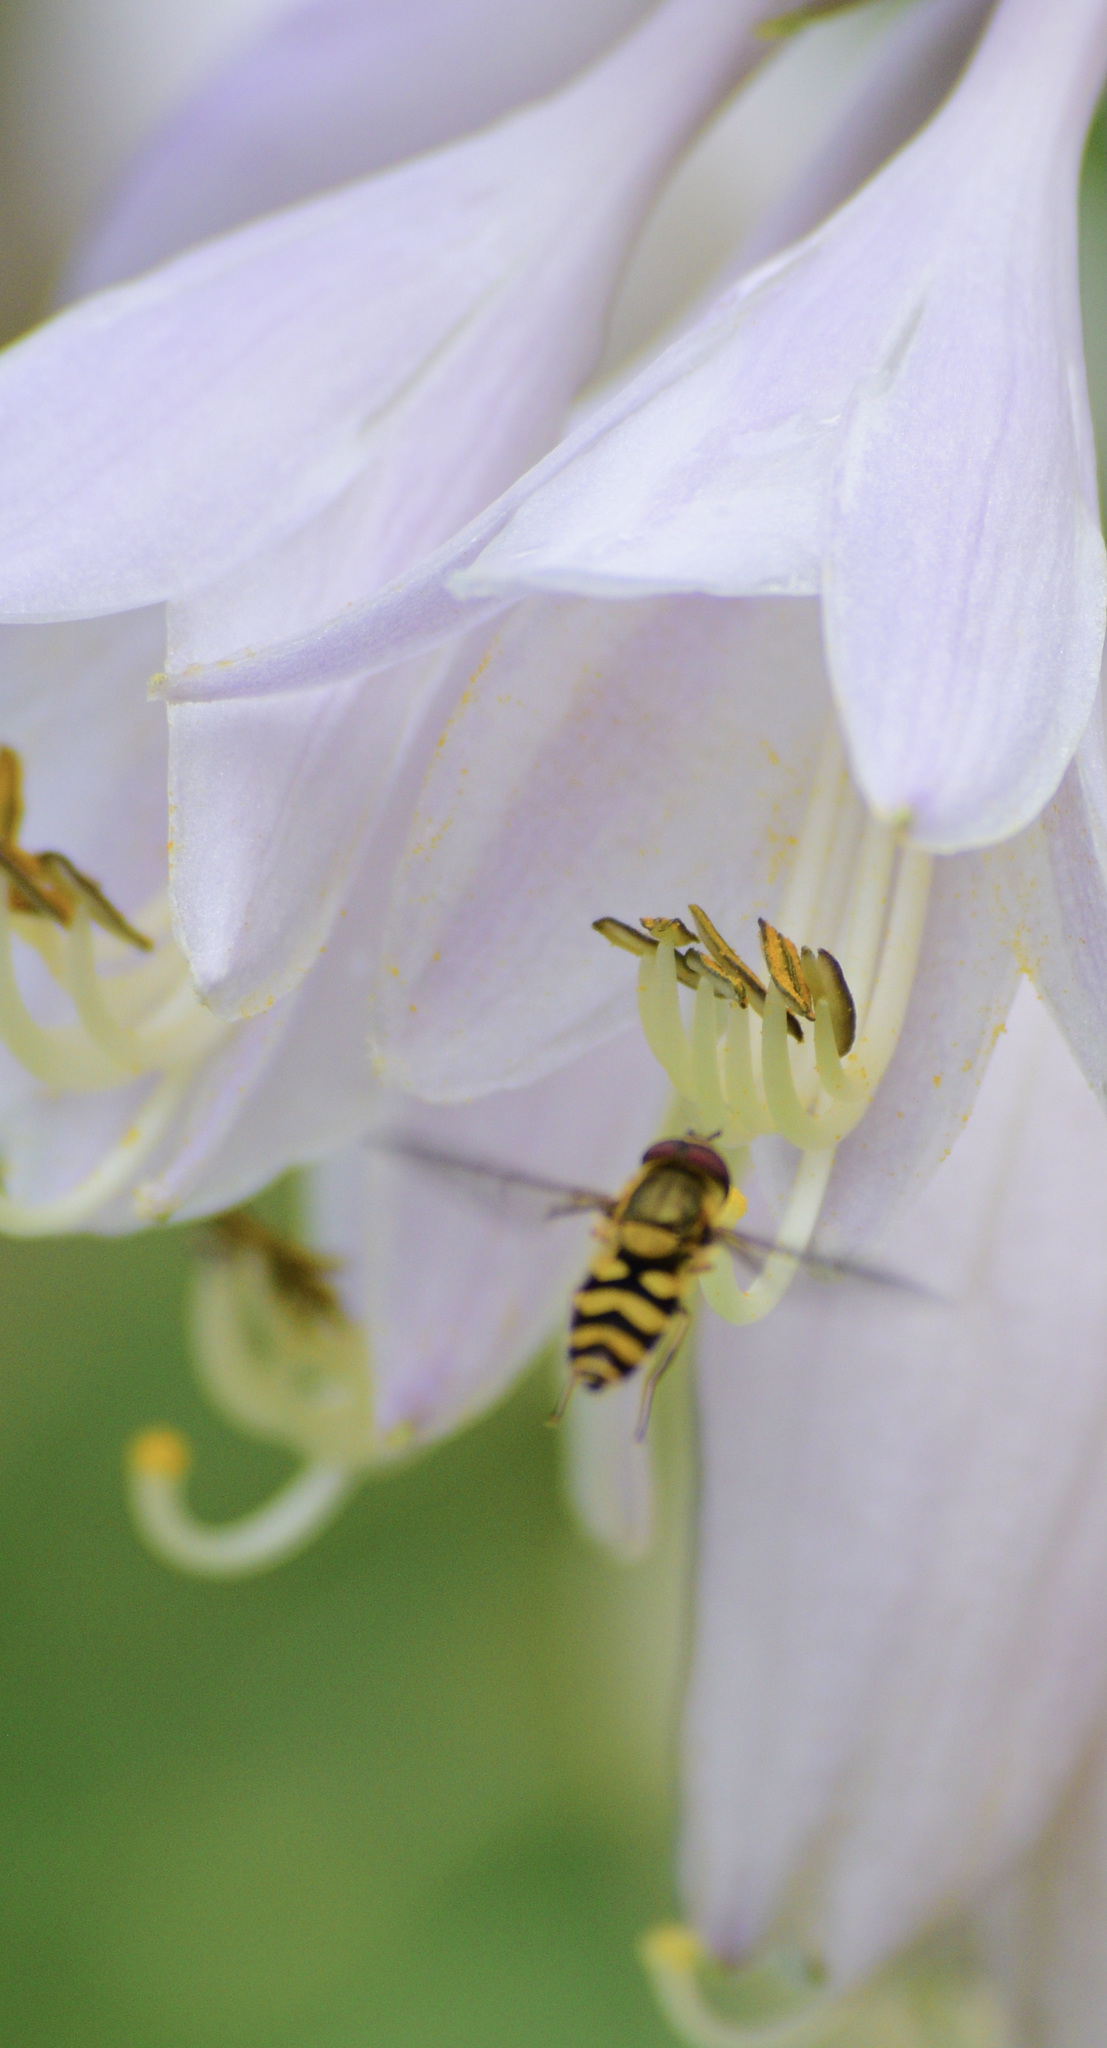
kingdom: Animalia
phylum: Arthropoda
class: Insecta
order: Diptera
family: Syrphidae
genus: Syrphus
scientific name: Syrphus
